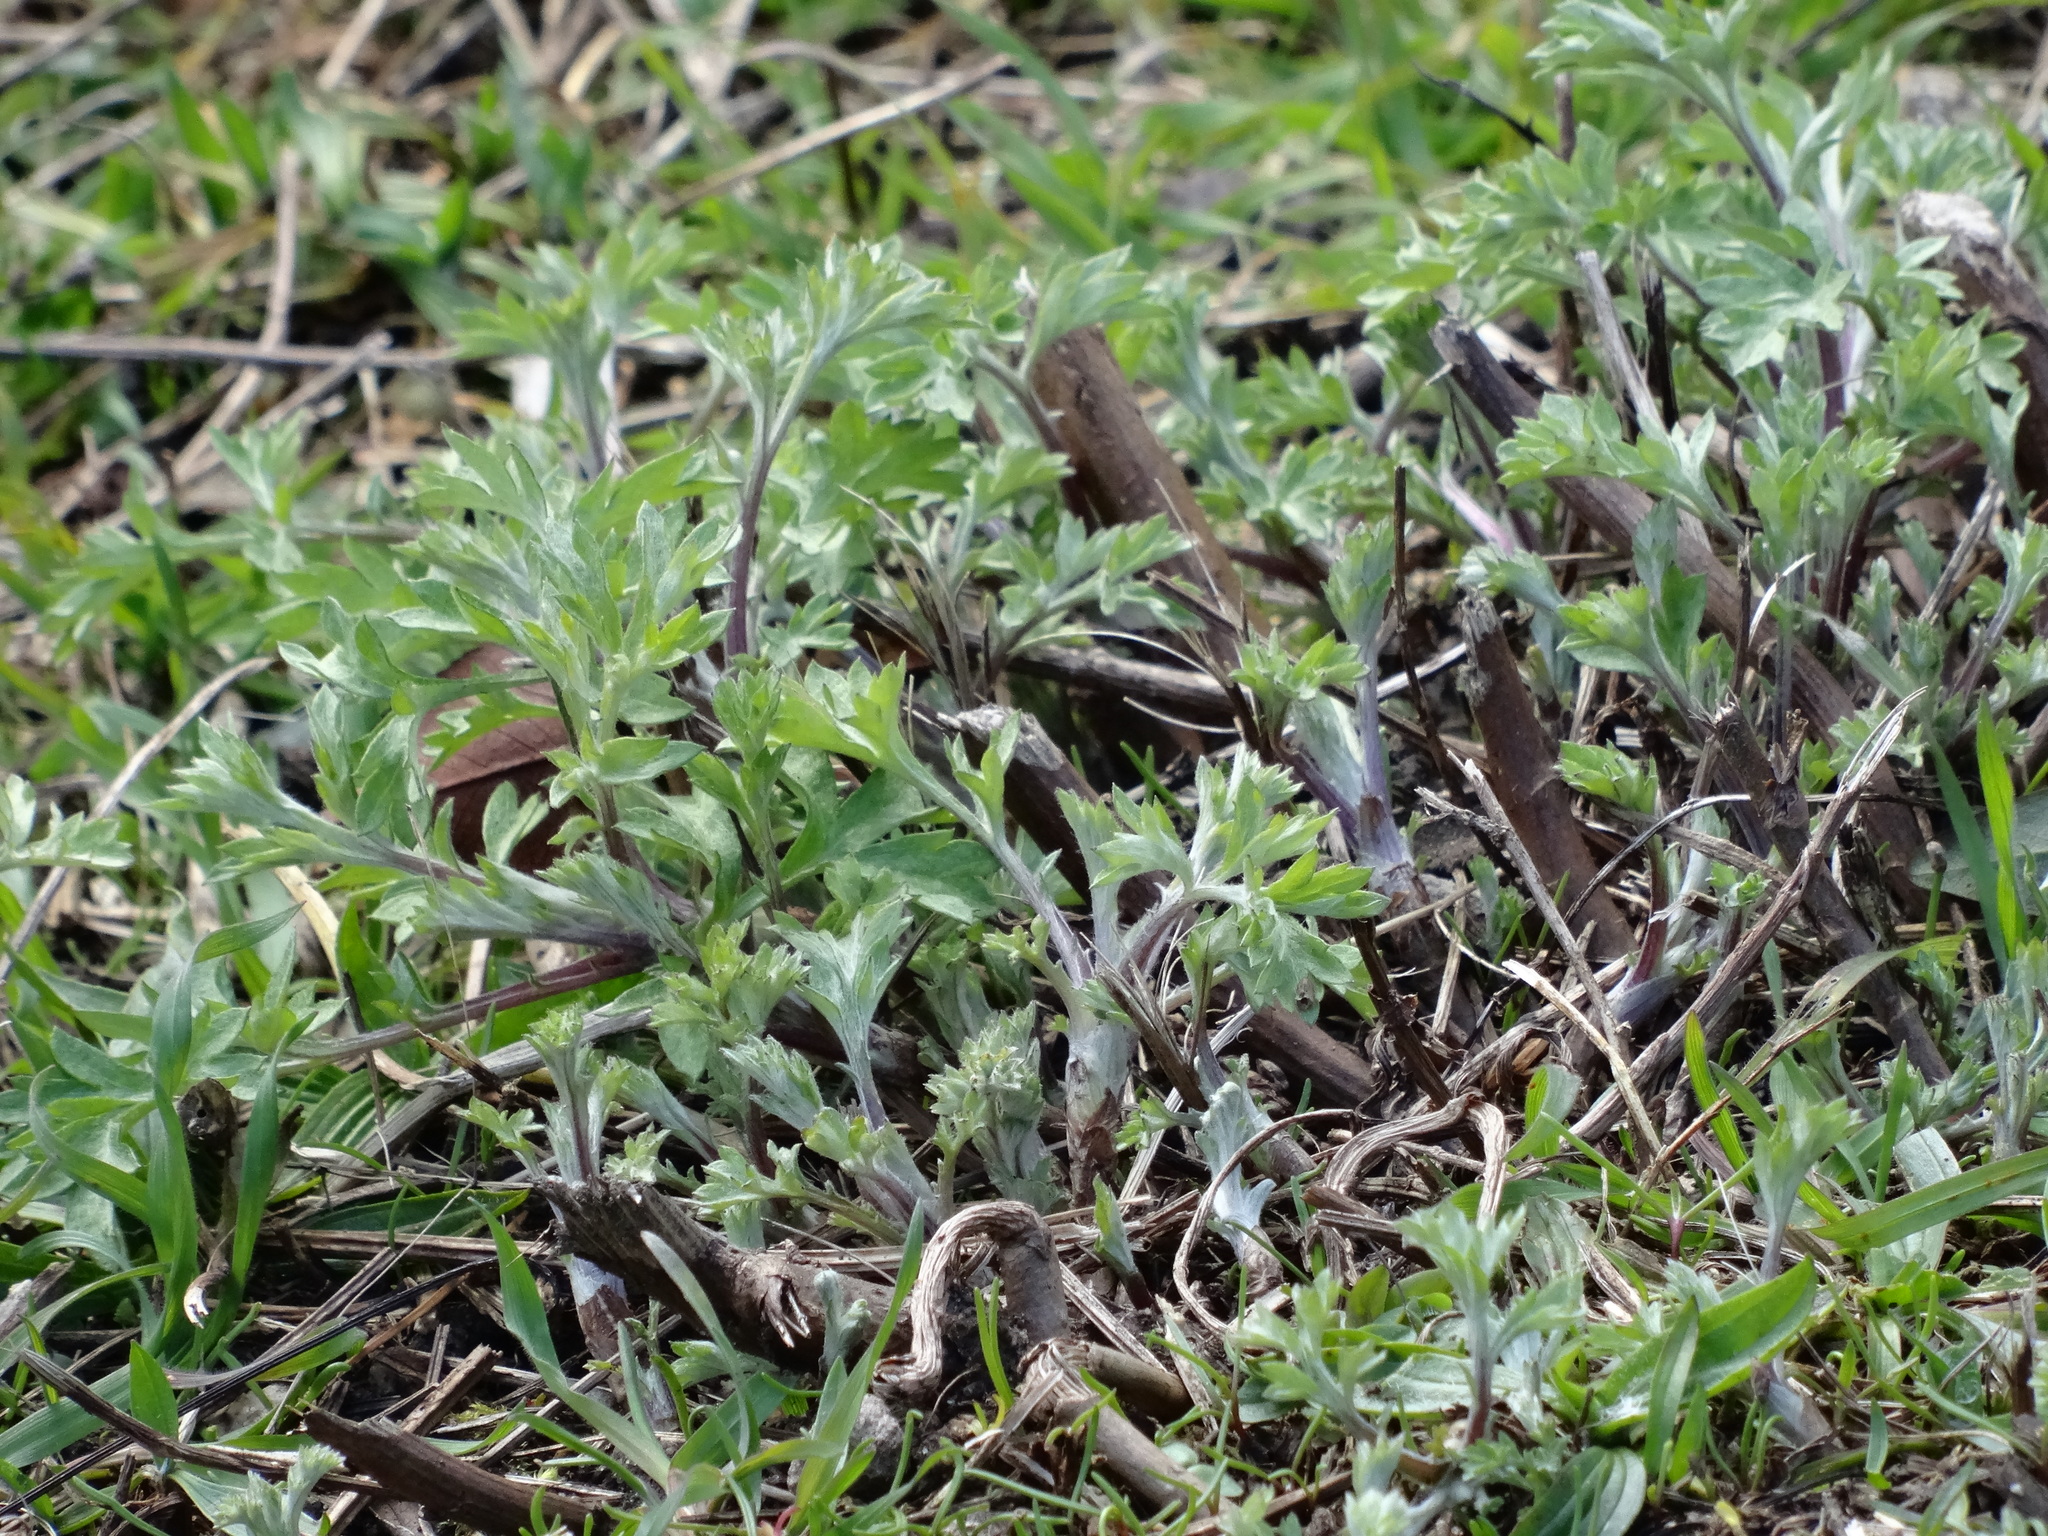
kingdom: Plantae
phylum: Tracheophyta
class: Magnoliopsida
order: Asterales
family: Asteraceae
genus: Artemisia
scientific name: Artemisia vulgaris
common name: Mugwort
